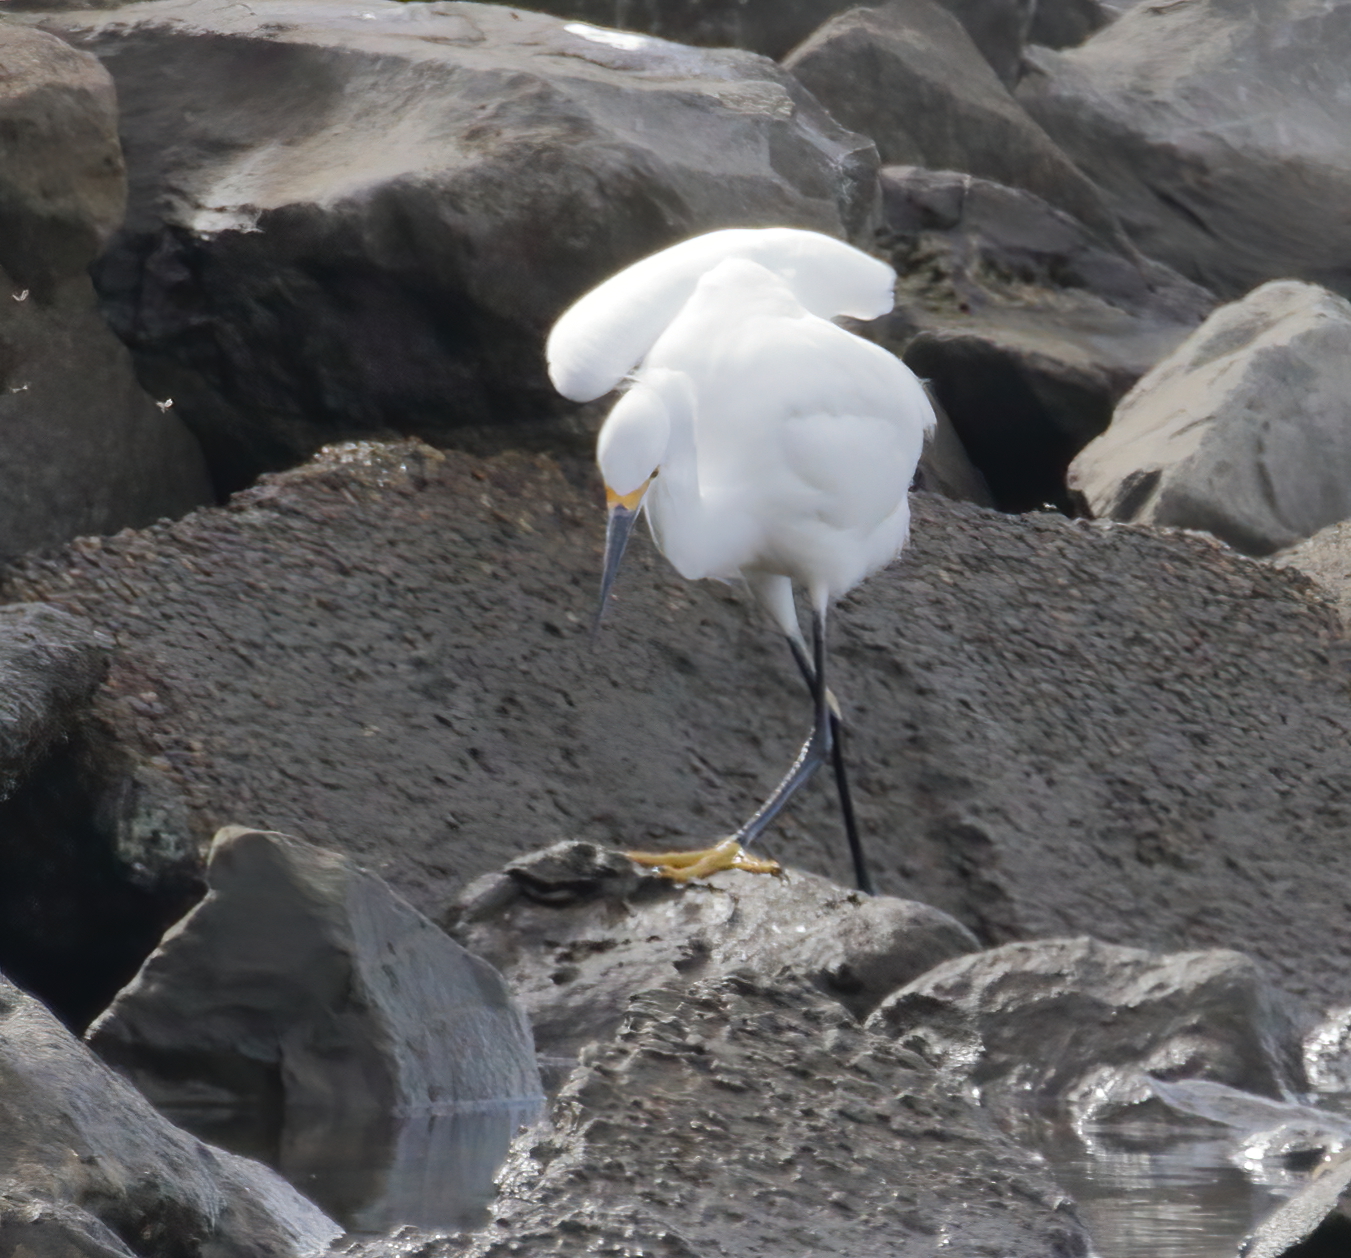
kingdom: Animalia
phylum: Chordata
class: Aves
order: Pelecaniformes
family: Ardeidae
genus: Egretta
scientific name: Egretta thula
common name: Snowy egret
